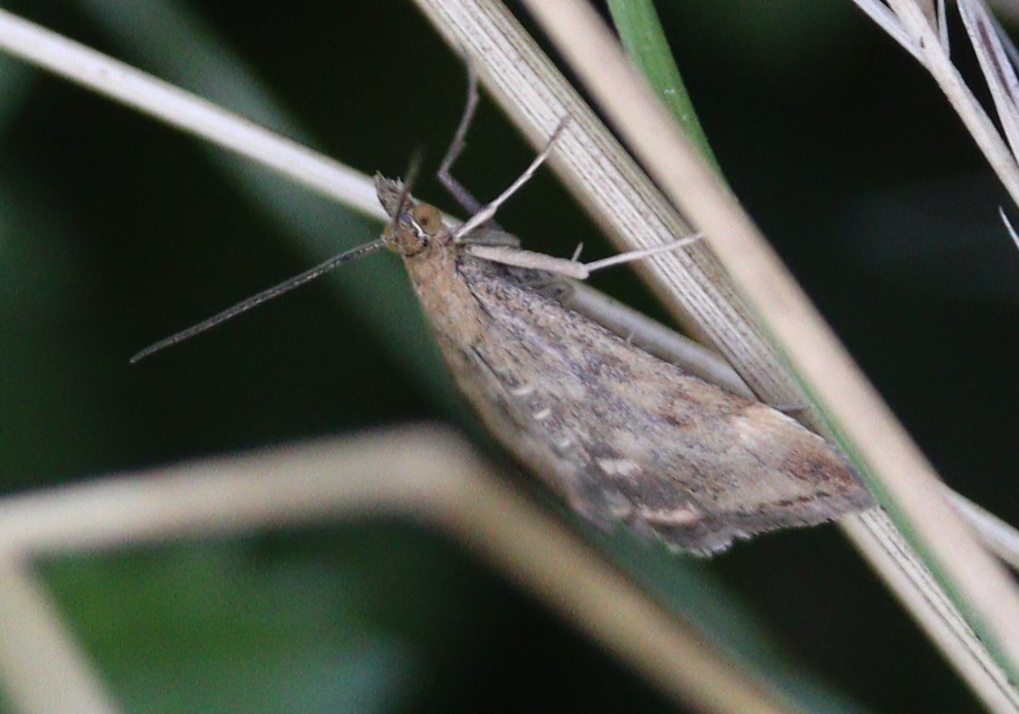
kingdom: Animalia
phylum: Arthropoda
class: Insecta
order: Lepidoptera
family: Crambidae
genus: Pyrausta
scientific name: Pyrausta despicata
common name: Straw-barred pearl
